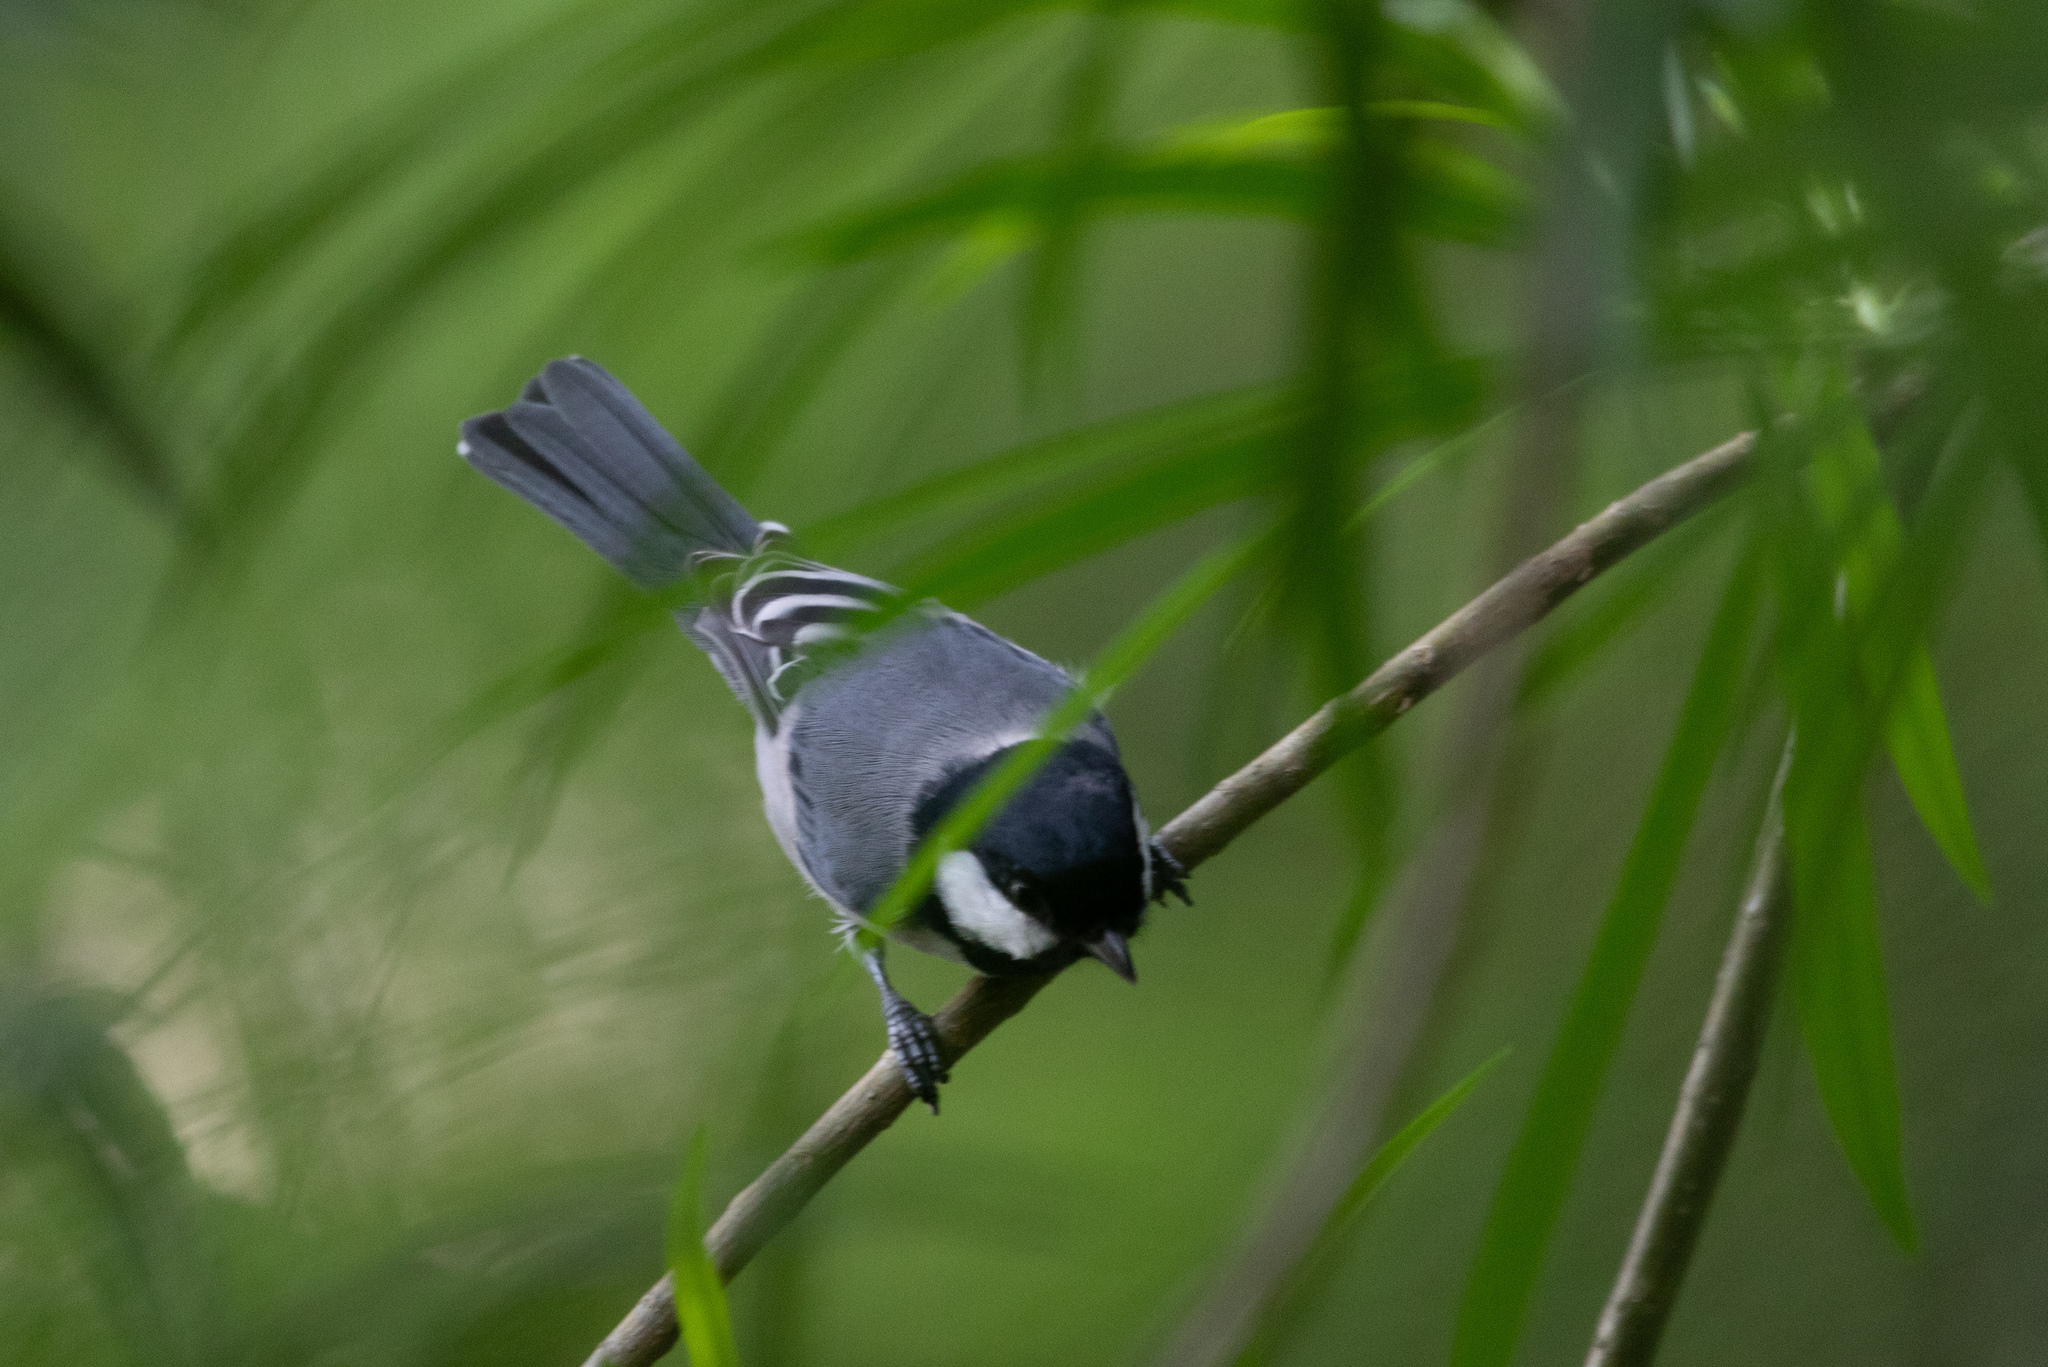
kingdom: Animalia
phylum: Chordata
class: Aves
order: Passeriformes
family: Paridae
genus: Parus
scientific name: Parus minor
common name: Japanese tit
